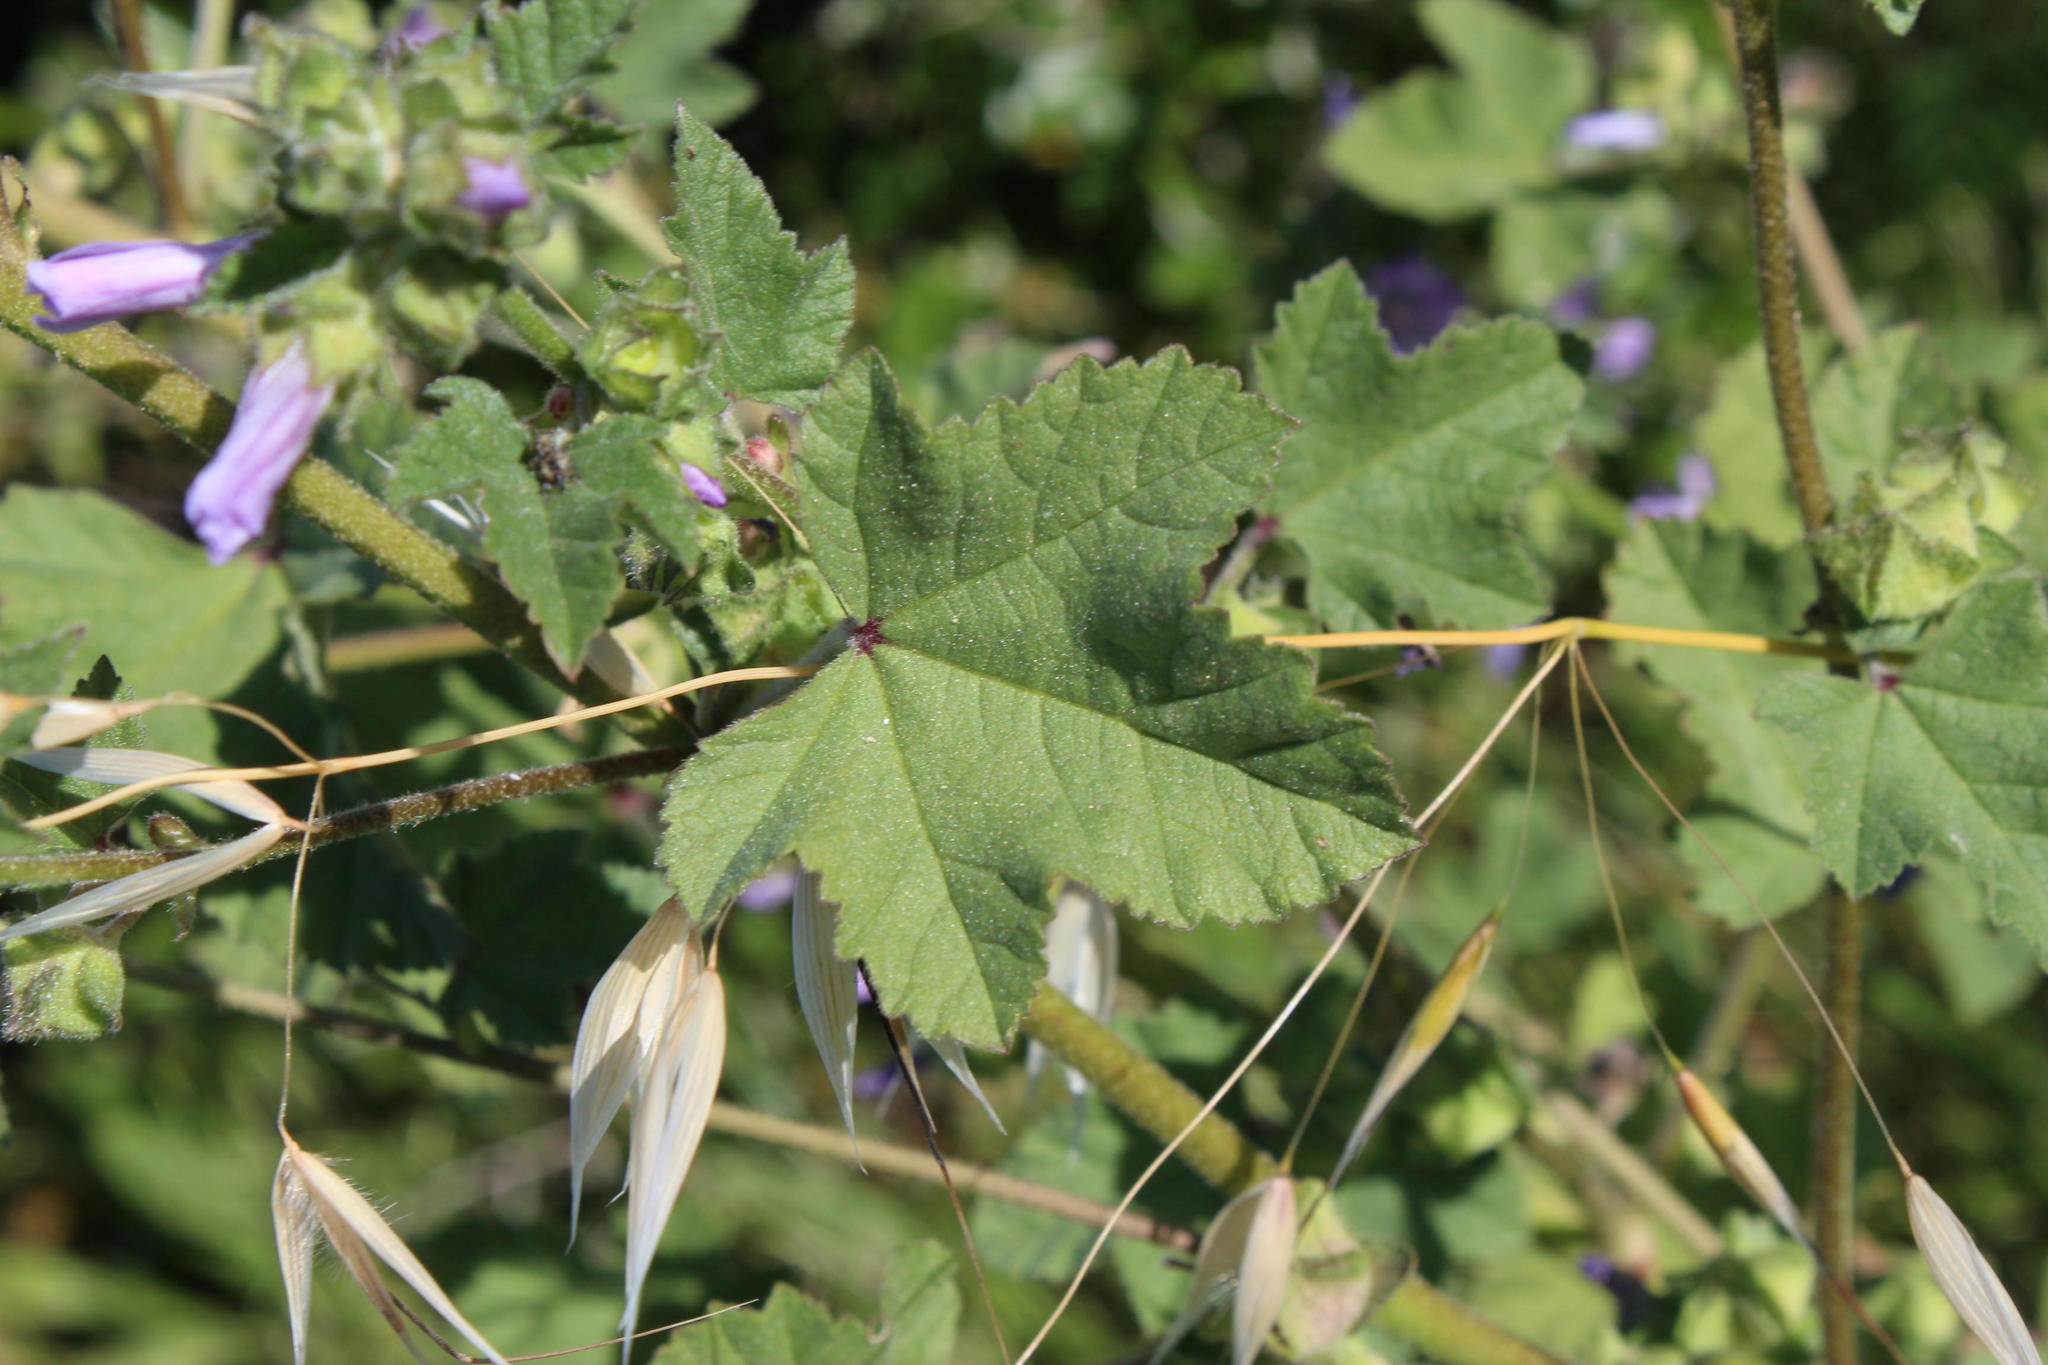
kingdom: Plantae
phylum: Tracheophyta
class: Magnoliopsida
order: Malvales
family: Malvaceae
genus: Malva
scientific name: Malva multiflora
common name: Cheeseweed
